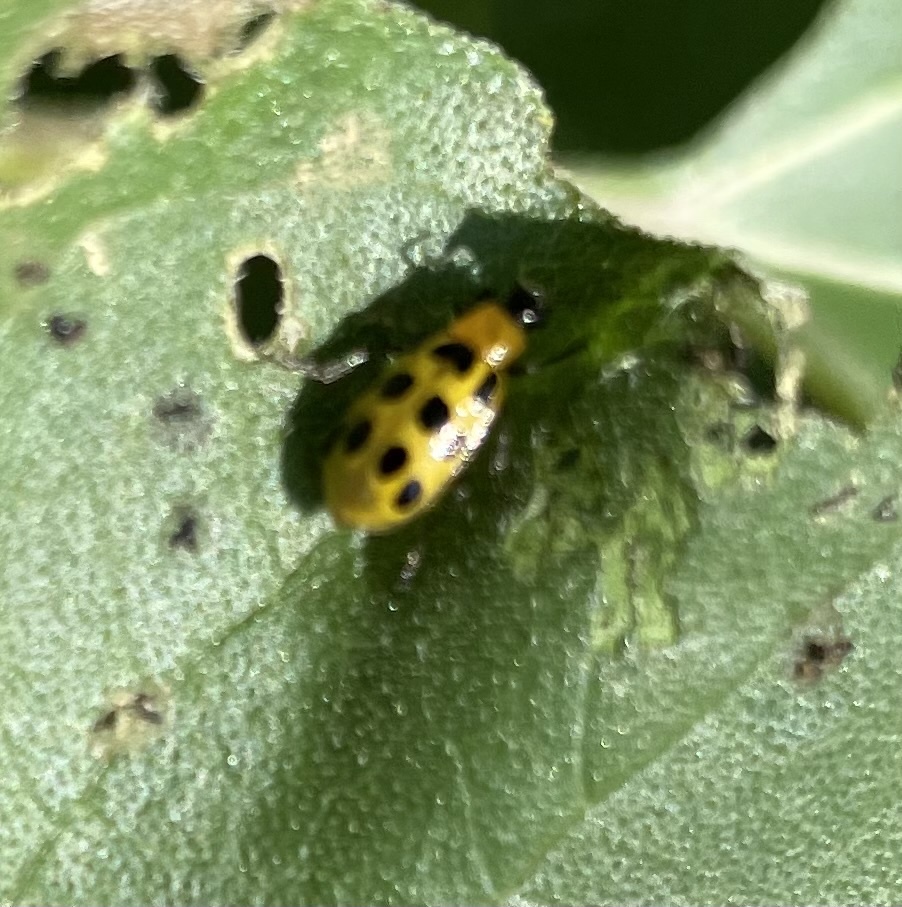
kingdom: Animalia
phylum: Arthropoda
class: Insecta
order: Coleoptera
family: Chrysomelidae
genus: Diabrotica
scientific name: Diabrotica undecimpunctata
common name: Spotted cucumber beetle
